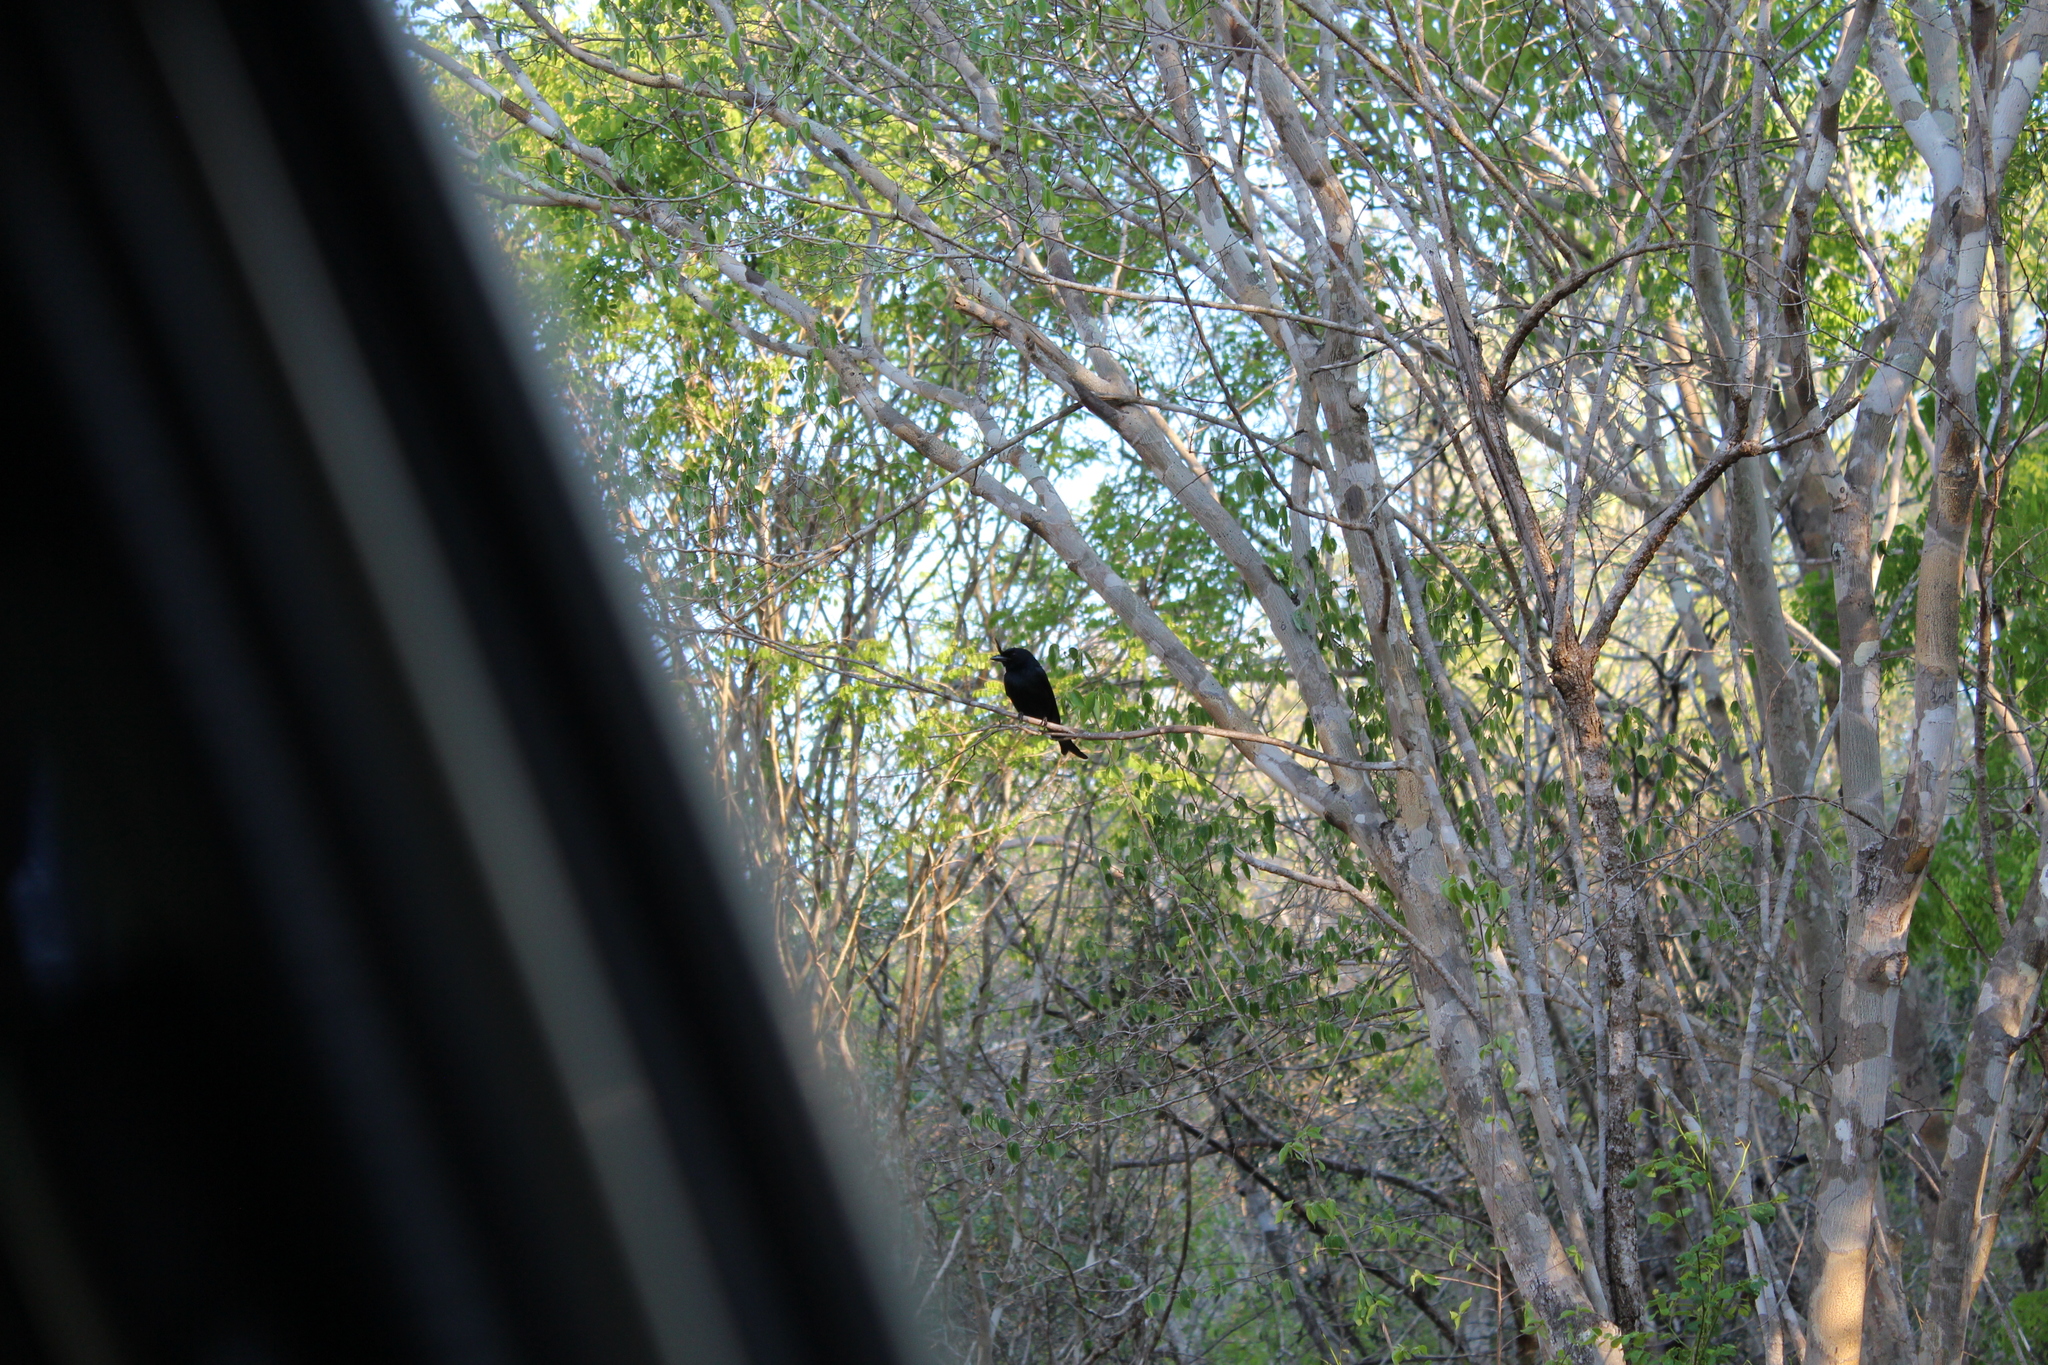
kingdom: Animalia
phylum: Chordata
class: Aves
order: Passeriformes
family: Dicruridae
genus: Dicrurus
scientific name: Dicrurus forficatus
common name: Crested drongo
